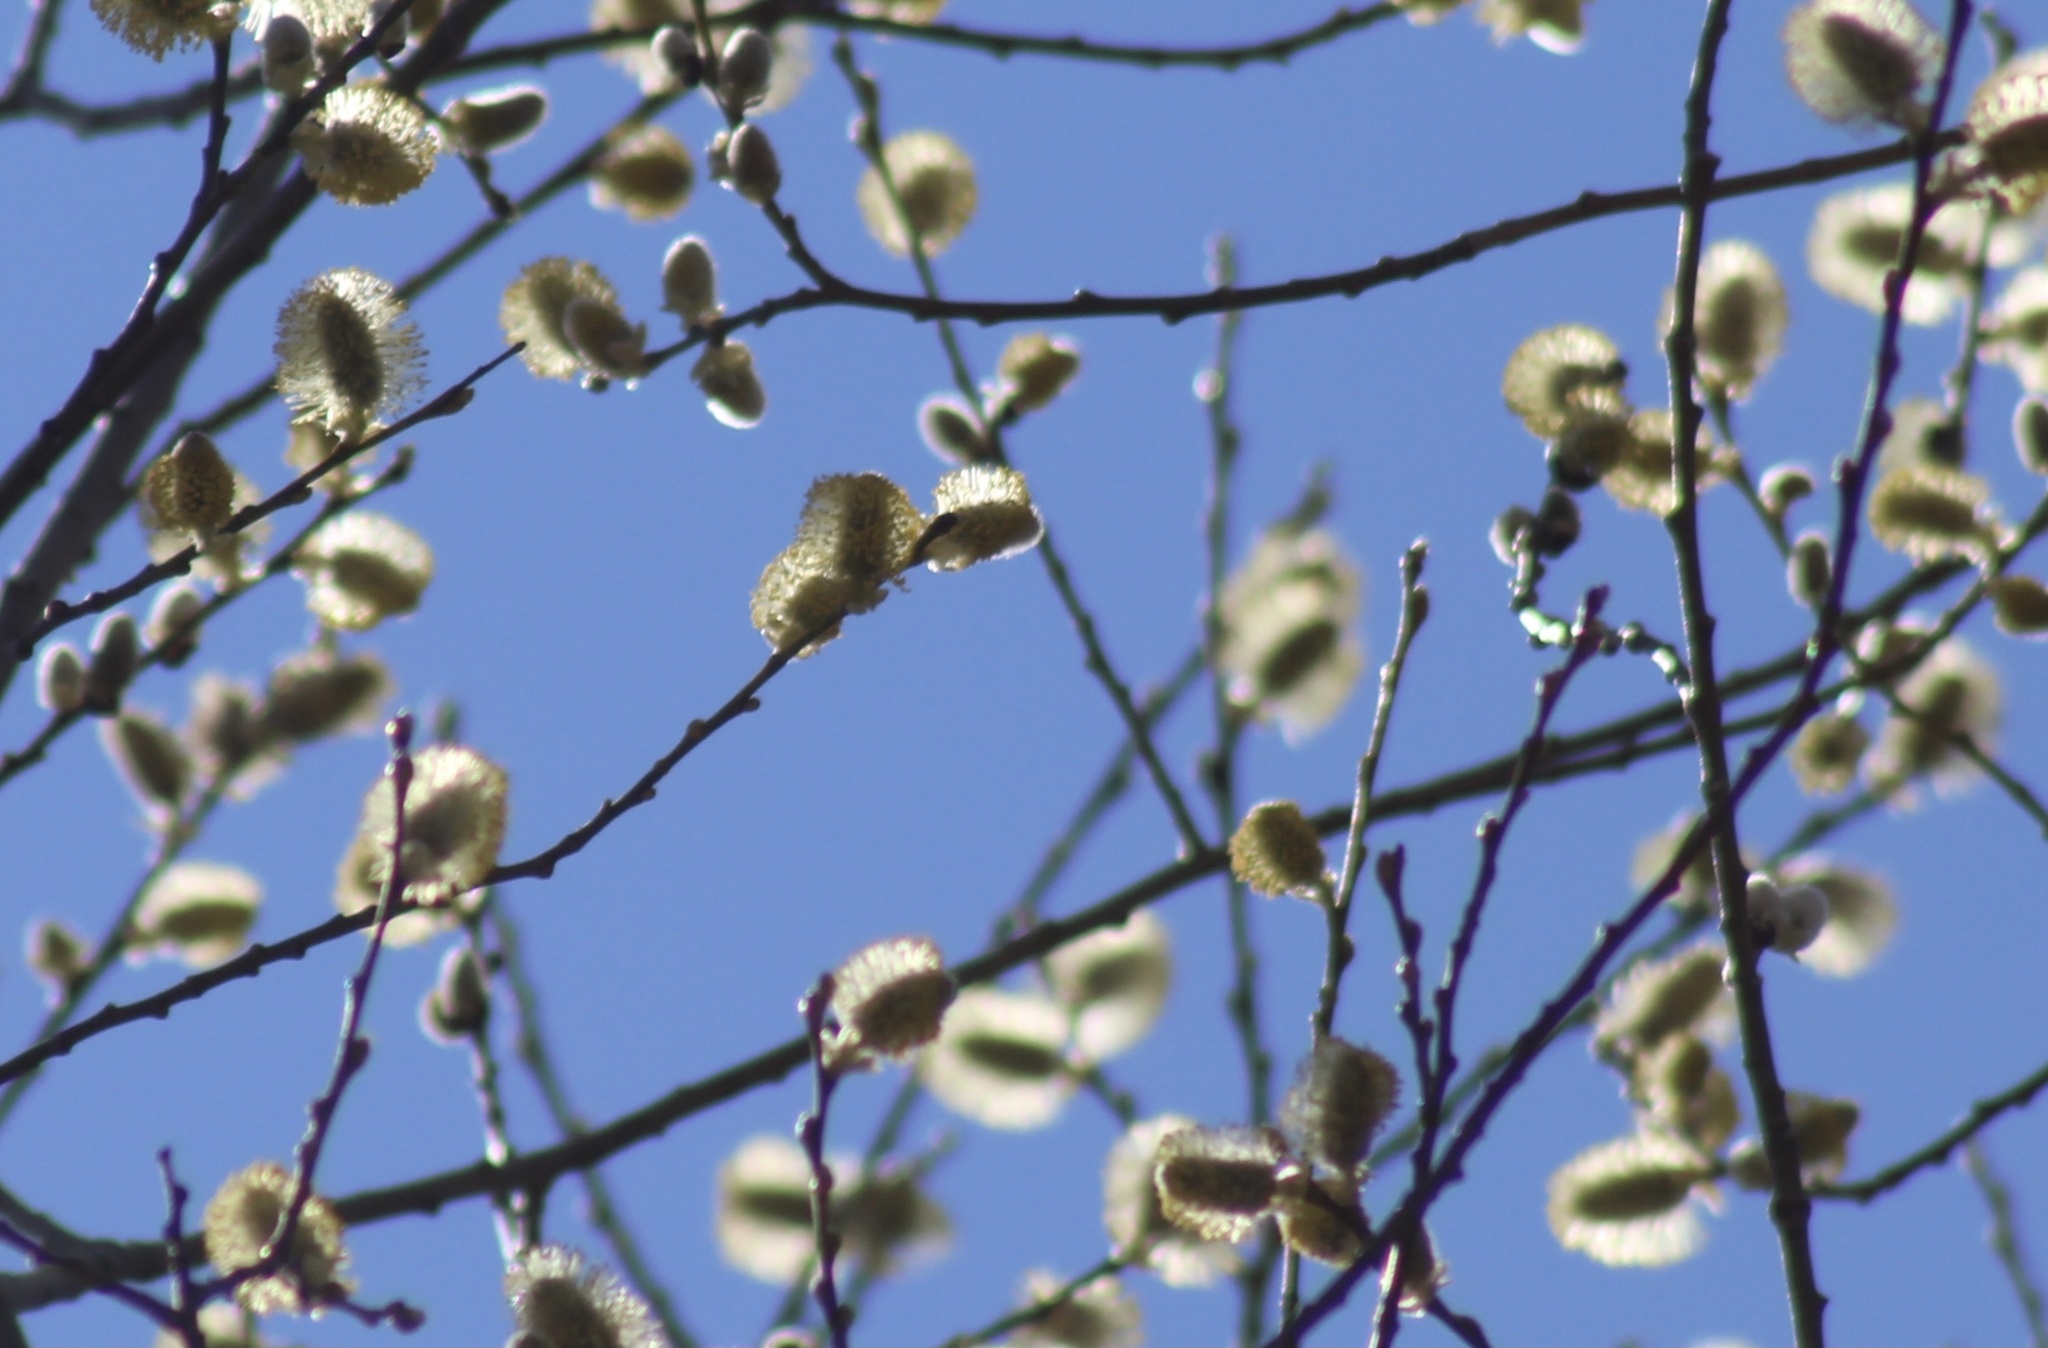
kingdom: Plantae
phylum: Tracheophyta
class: Magnoliopsida
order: Malpighiales
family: Salicaceae
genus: Salix
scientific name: Salix discolor
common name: Glaucous willow
